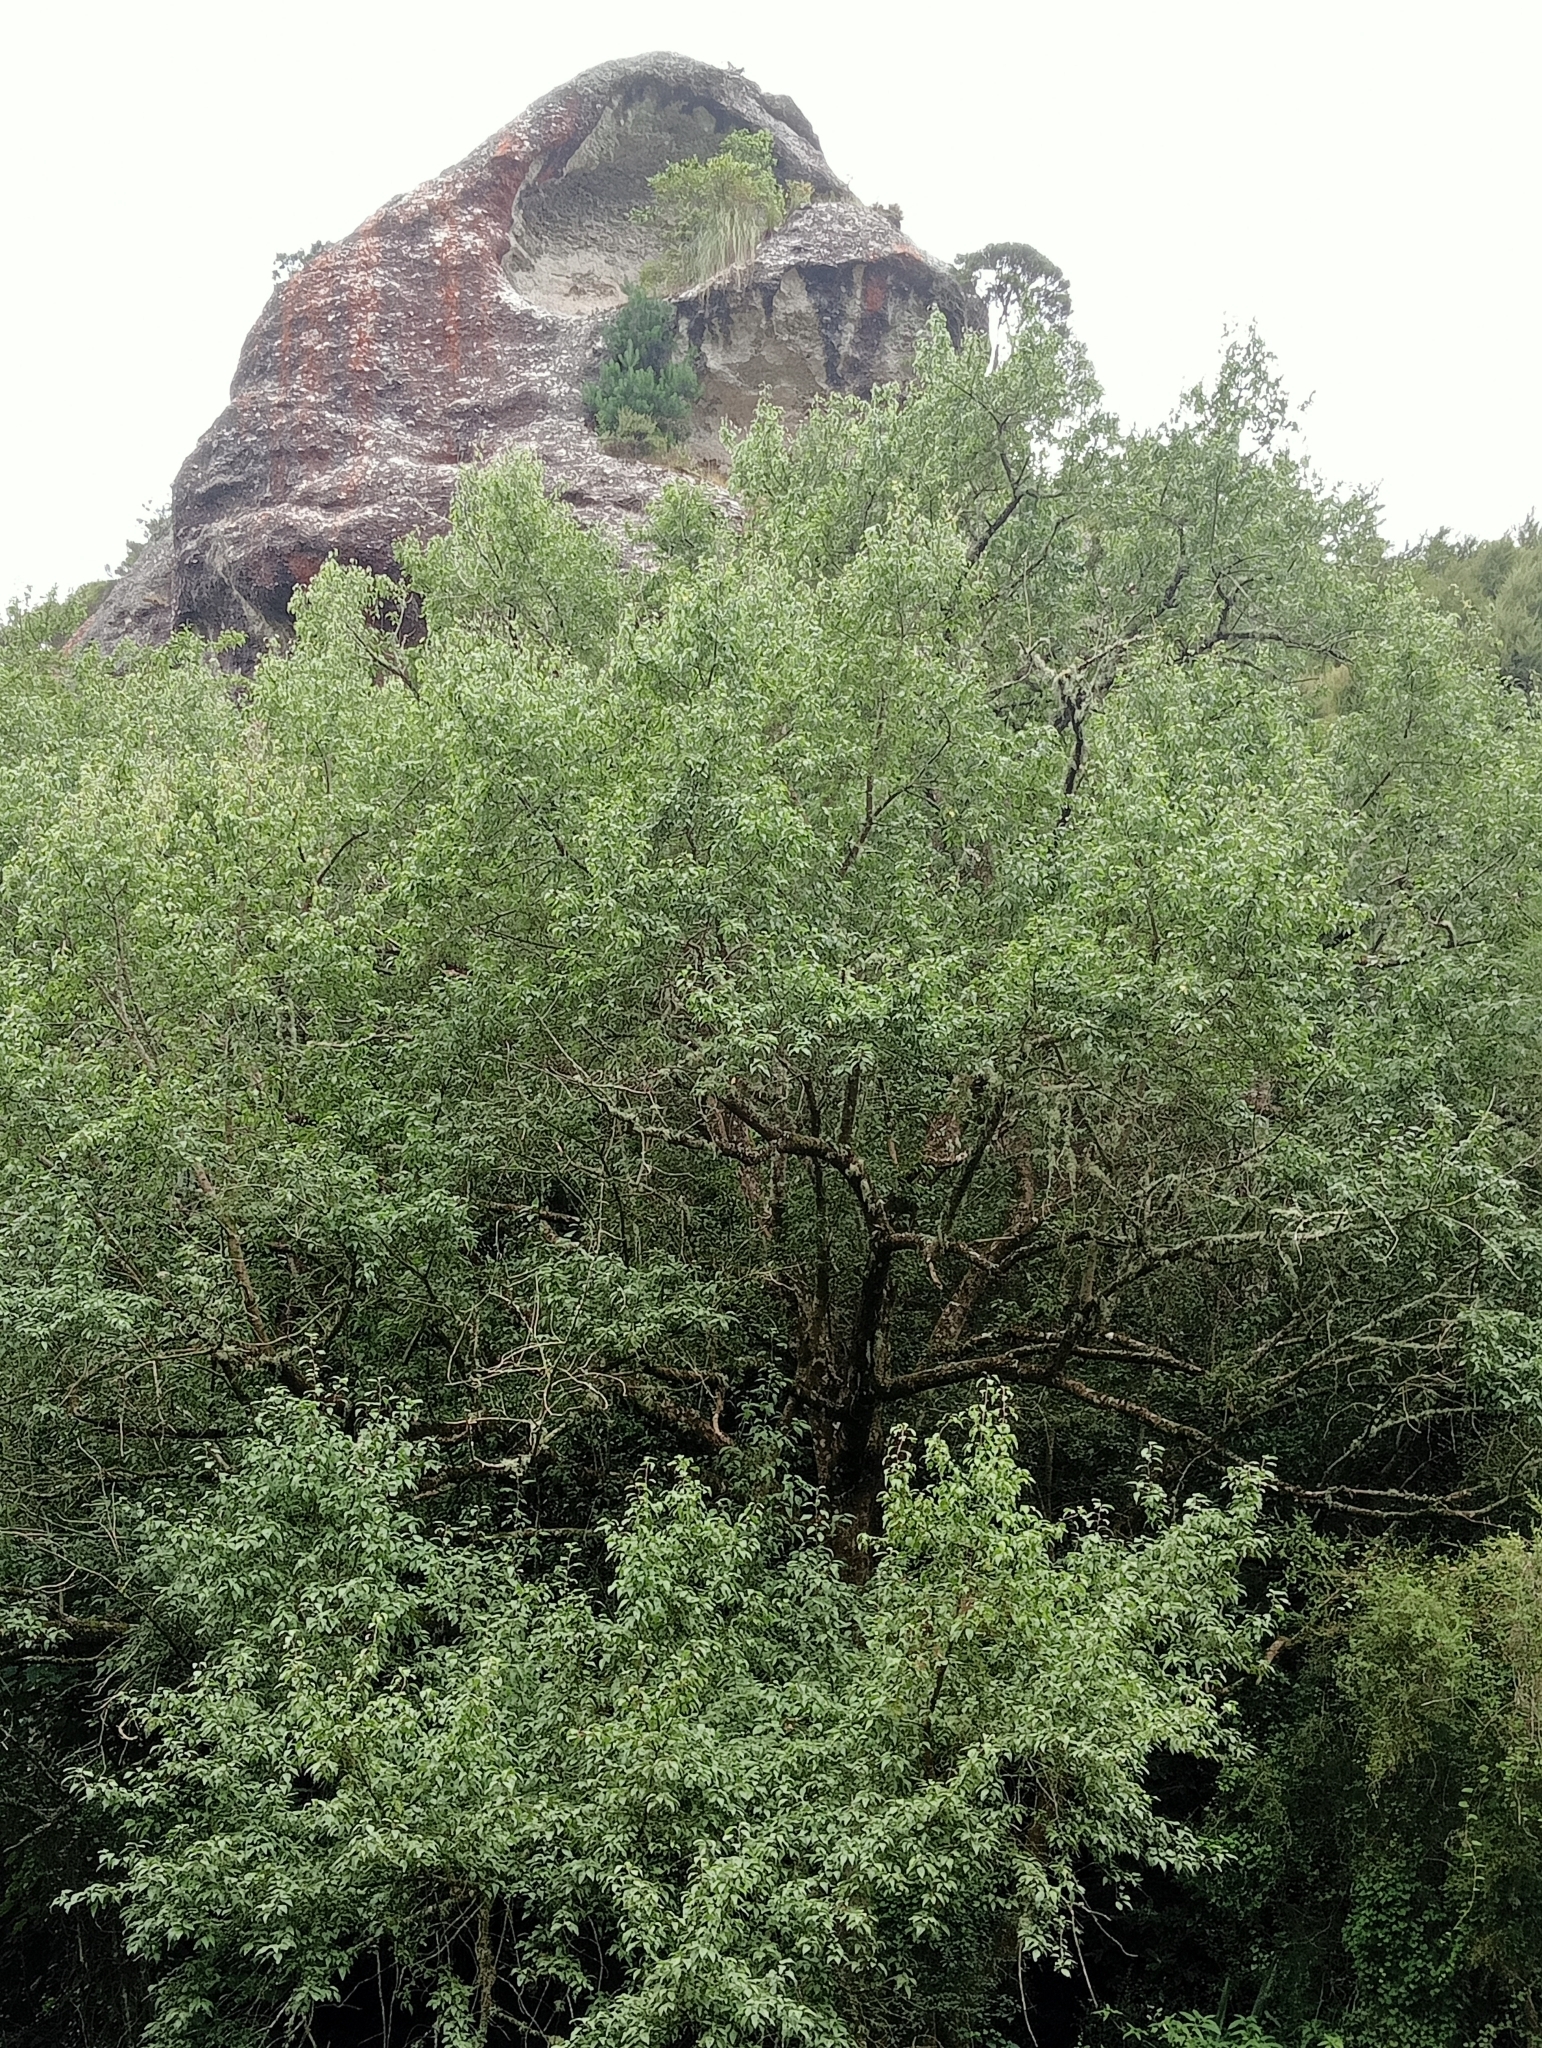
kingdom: Plantae
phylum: Tracheophyta
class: Magnoliopsida
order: Malvales
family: Malvaceae
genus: Plagianthus
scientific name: Plagianthus regius
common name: Manatu
